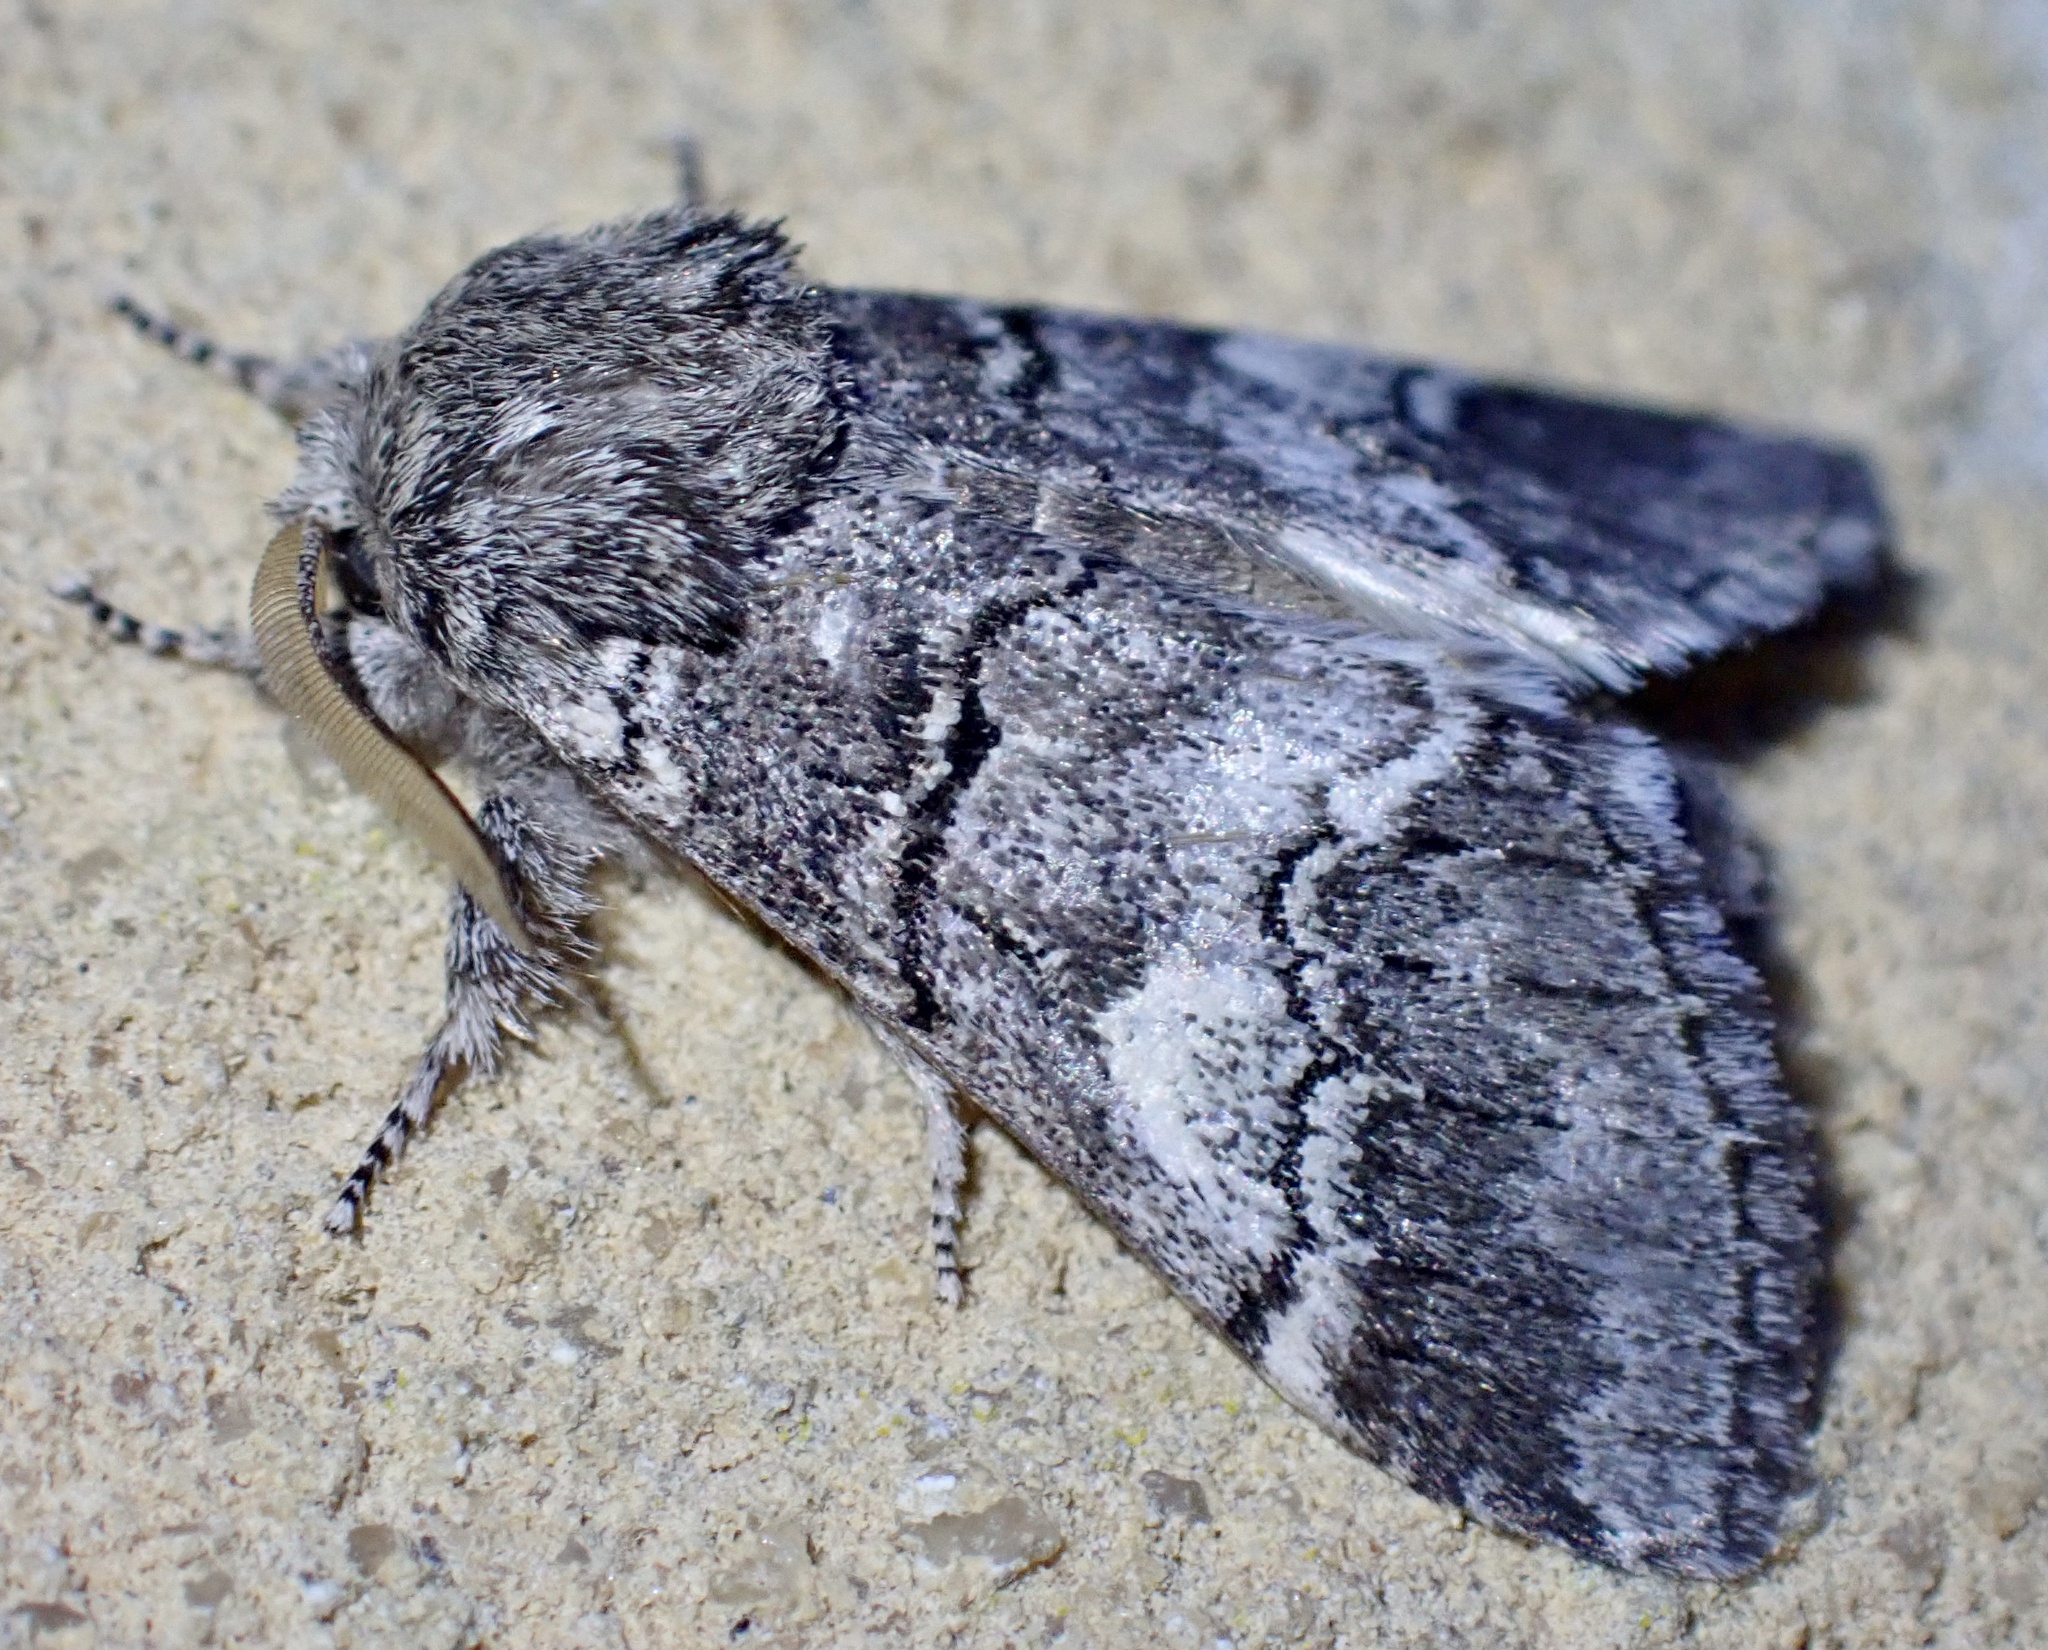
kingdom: Animalia
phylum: Arthropoda
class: Insecta
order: Lepidoptera
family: Notodontidae
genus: Drymonia
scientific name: Drymonia querna
